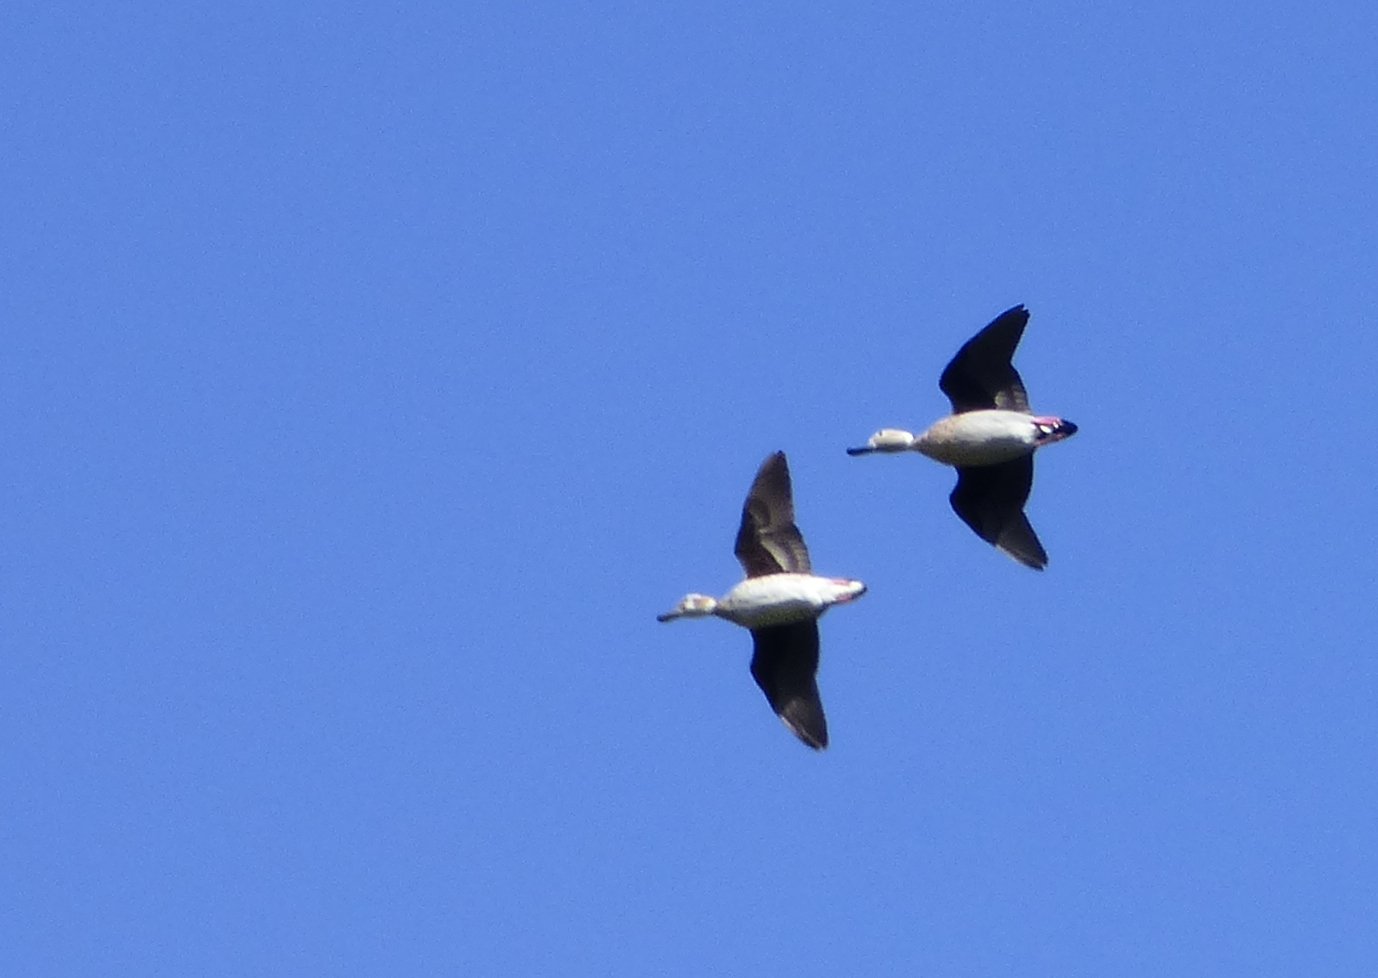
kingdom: Animalia
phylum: Chordata
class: Aves
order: Anseriformes
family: Anatidae
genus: Callonetta
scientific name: Callonetta leucophrys
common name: Ringed teal
